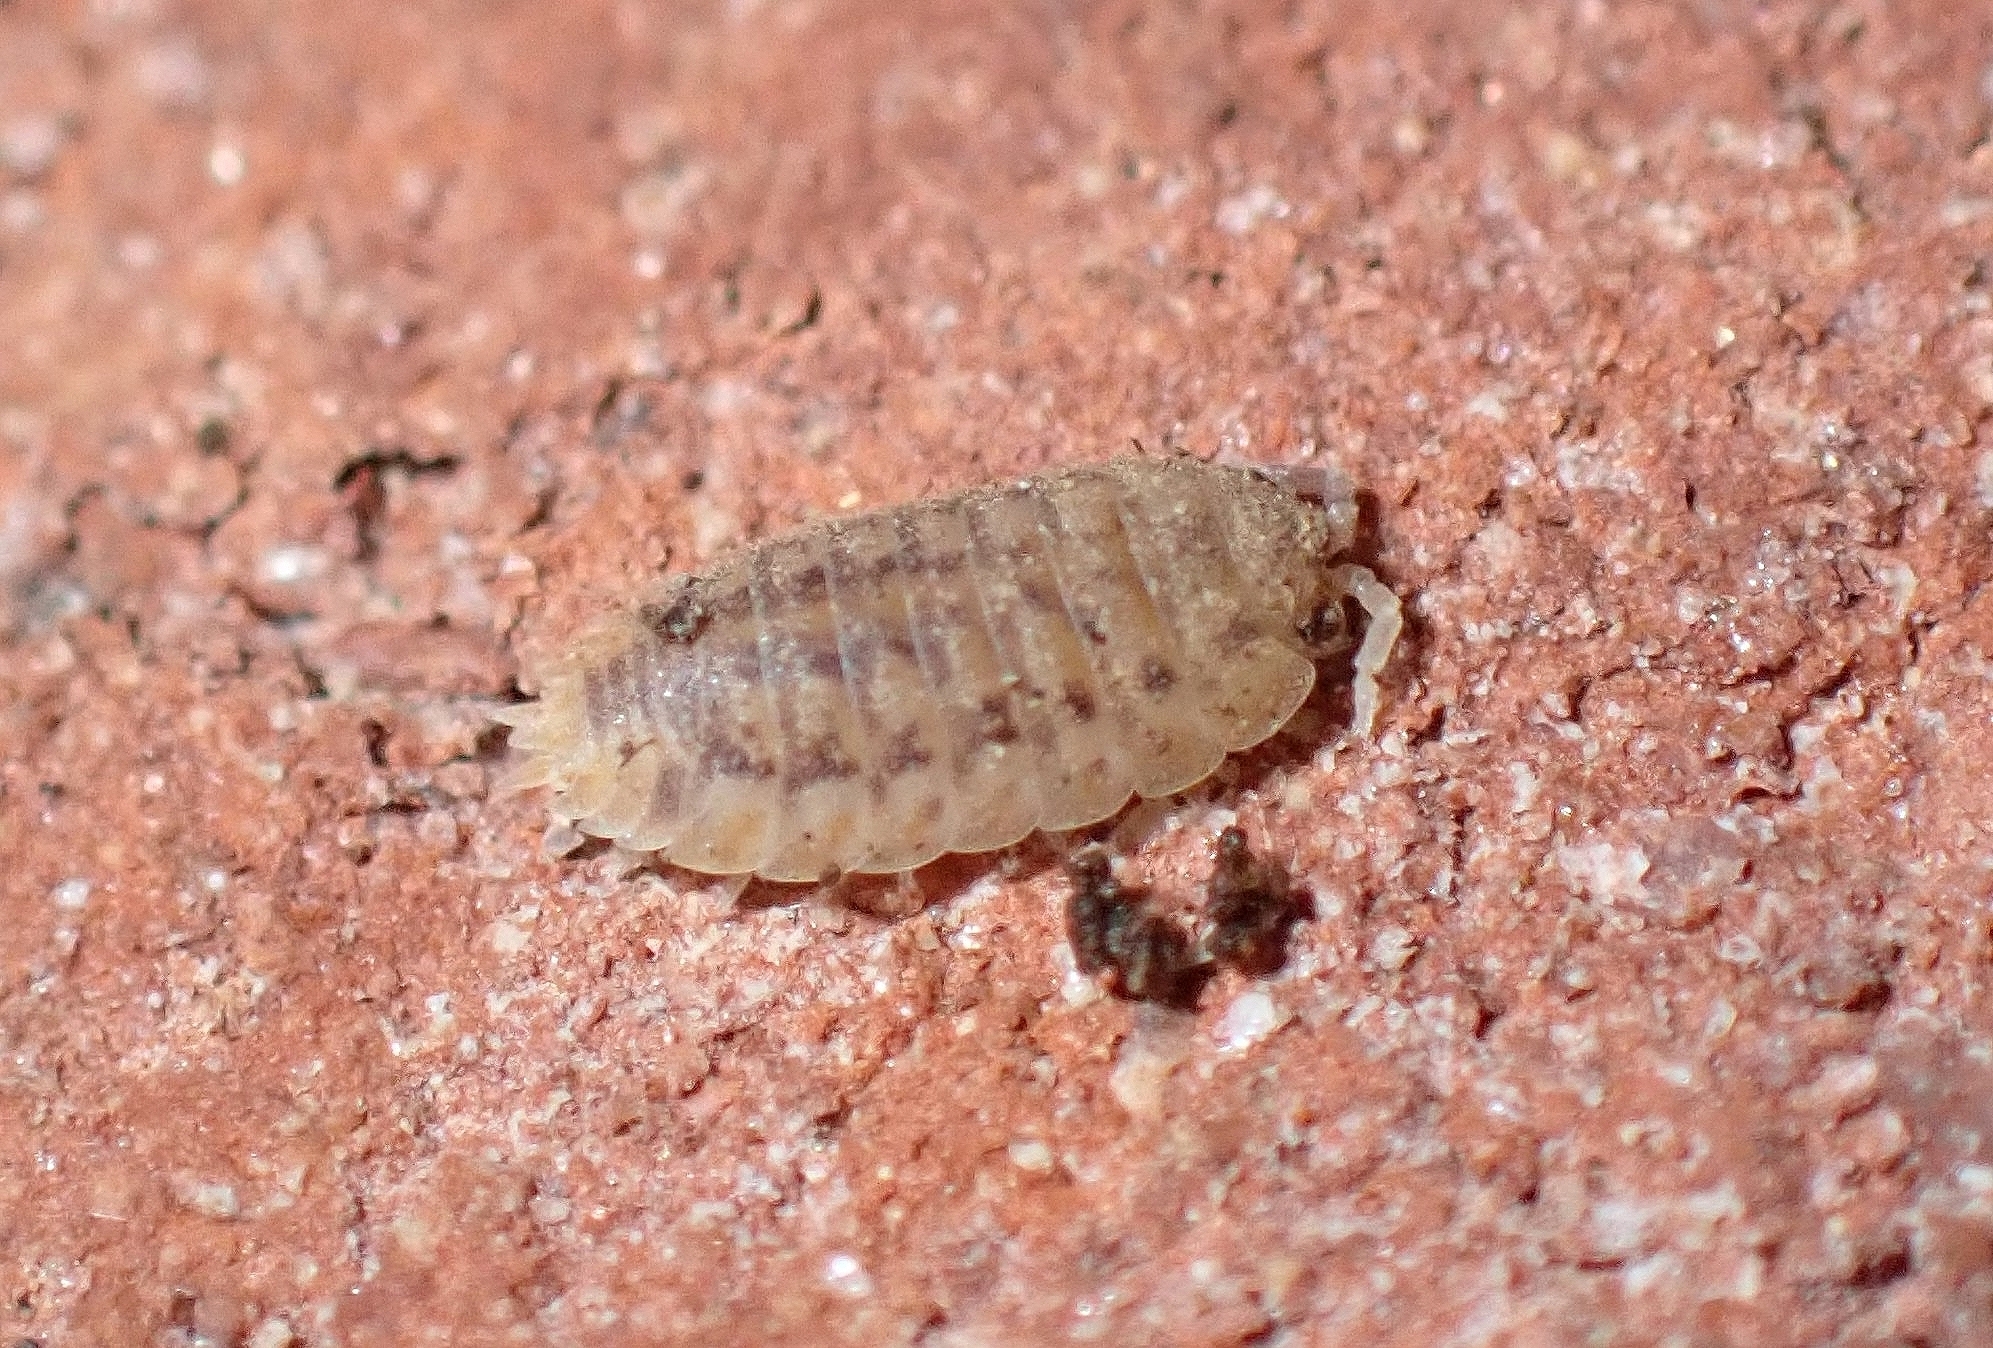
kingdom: Animalia
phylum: Arthropoda
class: Malacostraca
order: Isopoda
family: Porcellionidae
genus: Agabiformius
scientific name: Agabiformius lentus
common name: Pillbug
